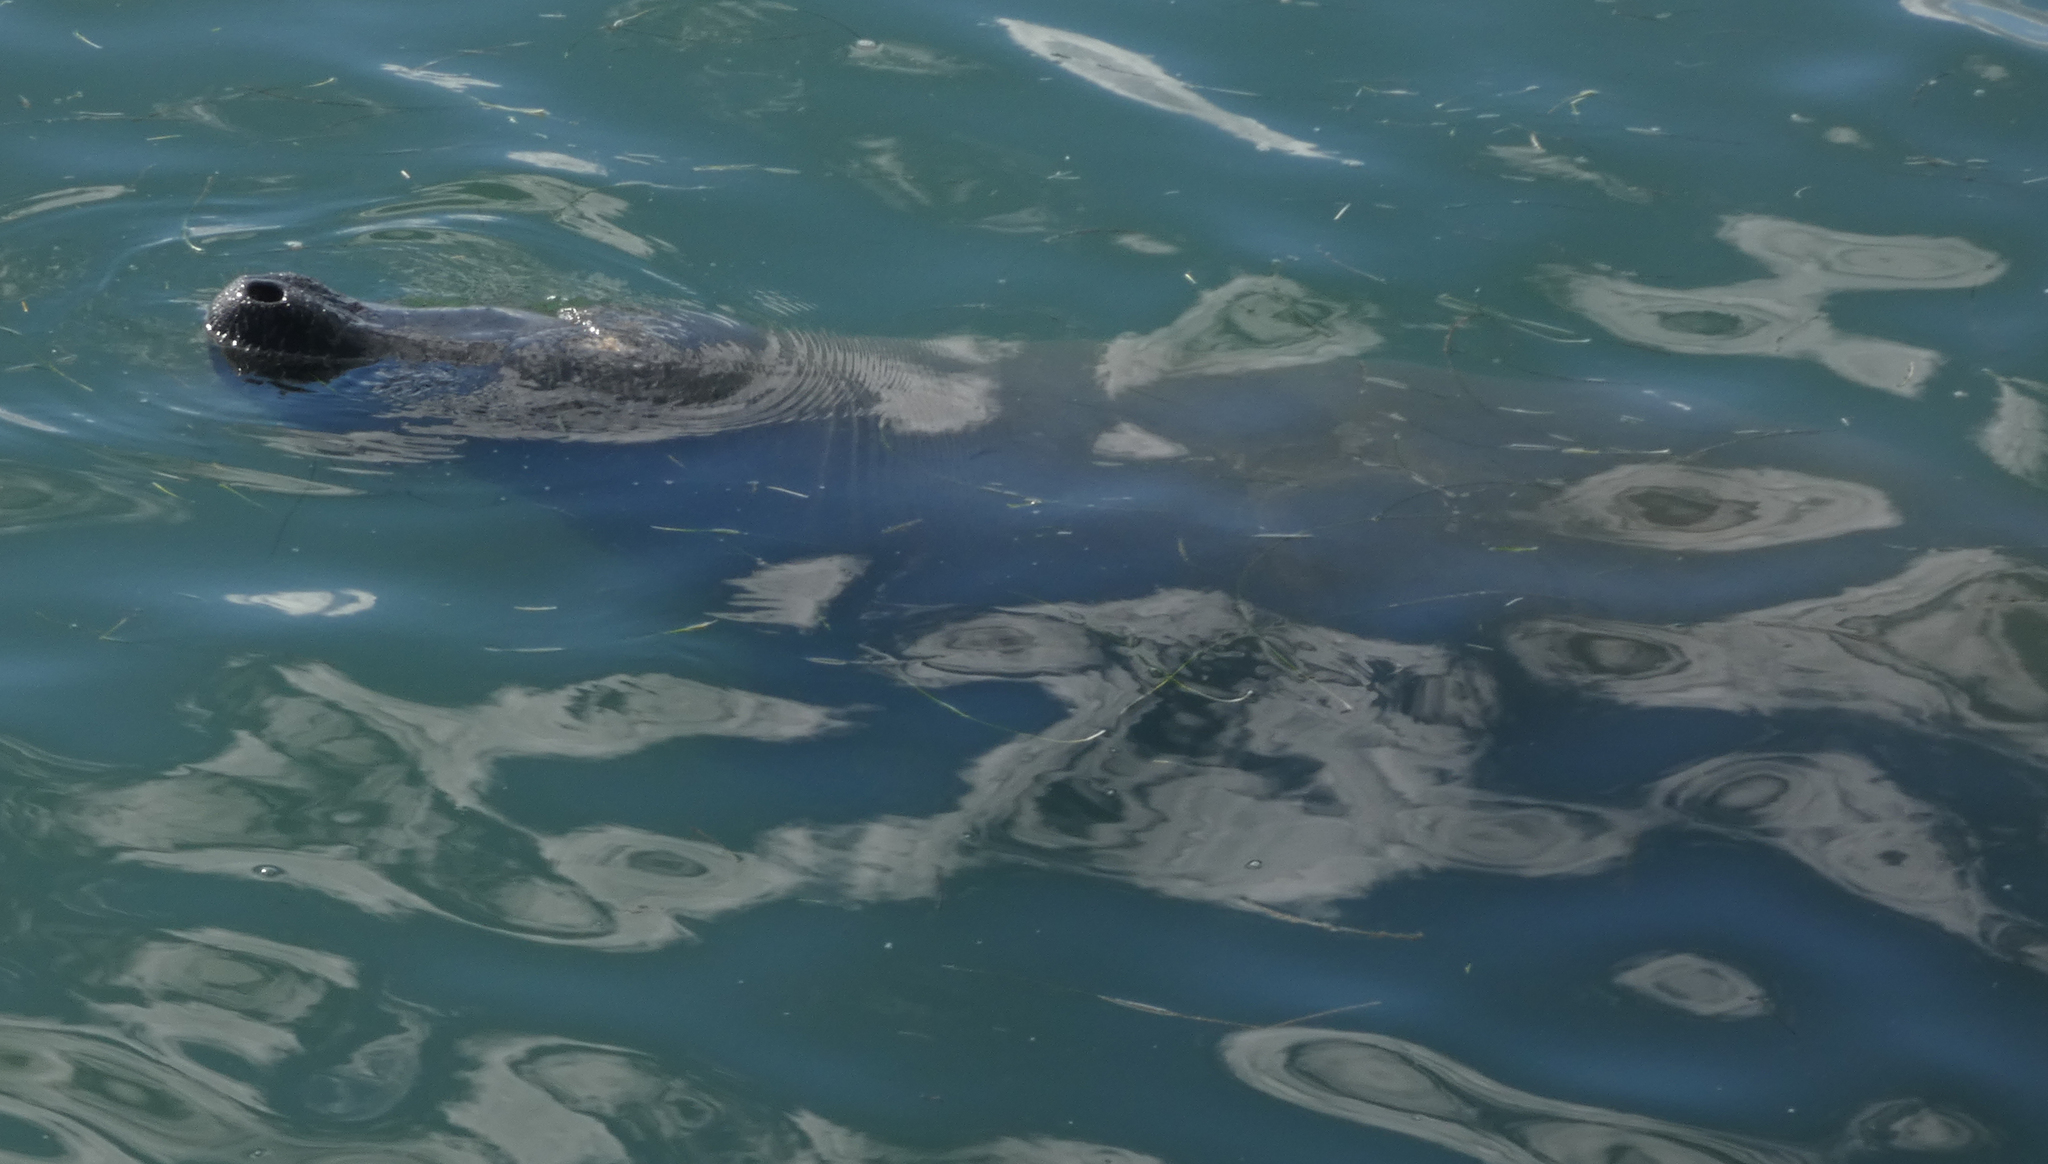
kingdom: Animalia
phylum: Chordata
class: Mammalia
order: Sirenia
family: Trichechidae
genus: Trichechus
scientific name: Trichechus manatus
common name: West indian manatee
